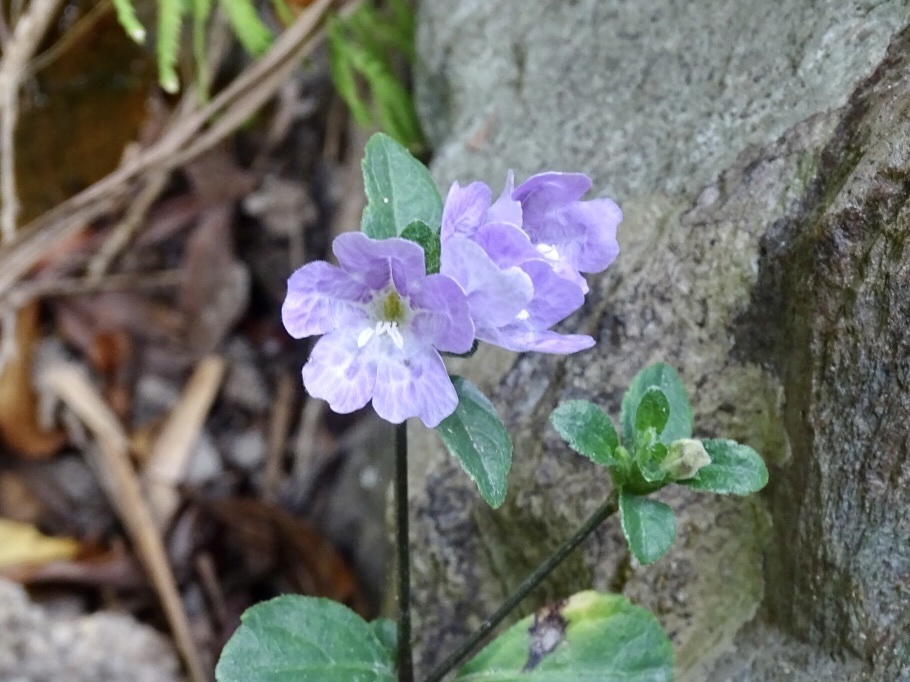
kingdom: Plantae
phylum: Tracheophyta
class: Magnoliopsida
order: Lamiales
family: Acanthaceae
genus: Strobilanthes
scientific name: Strobilanthes tetrasperma
